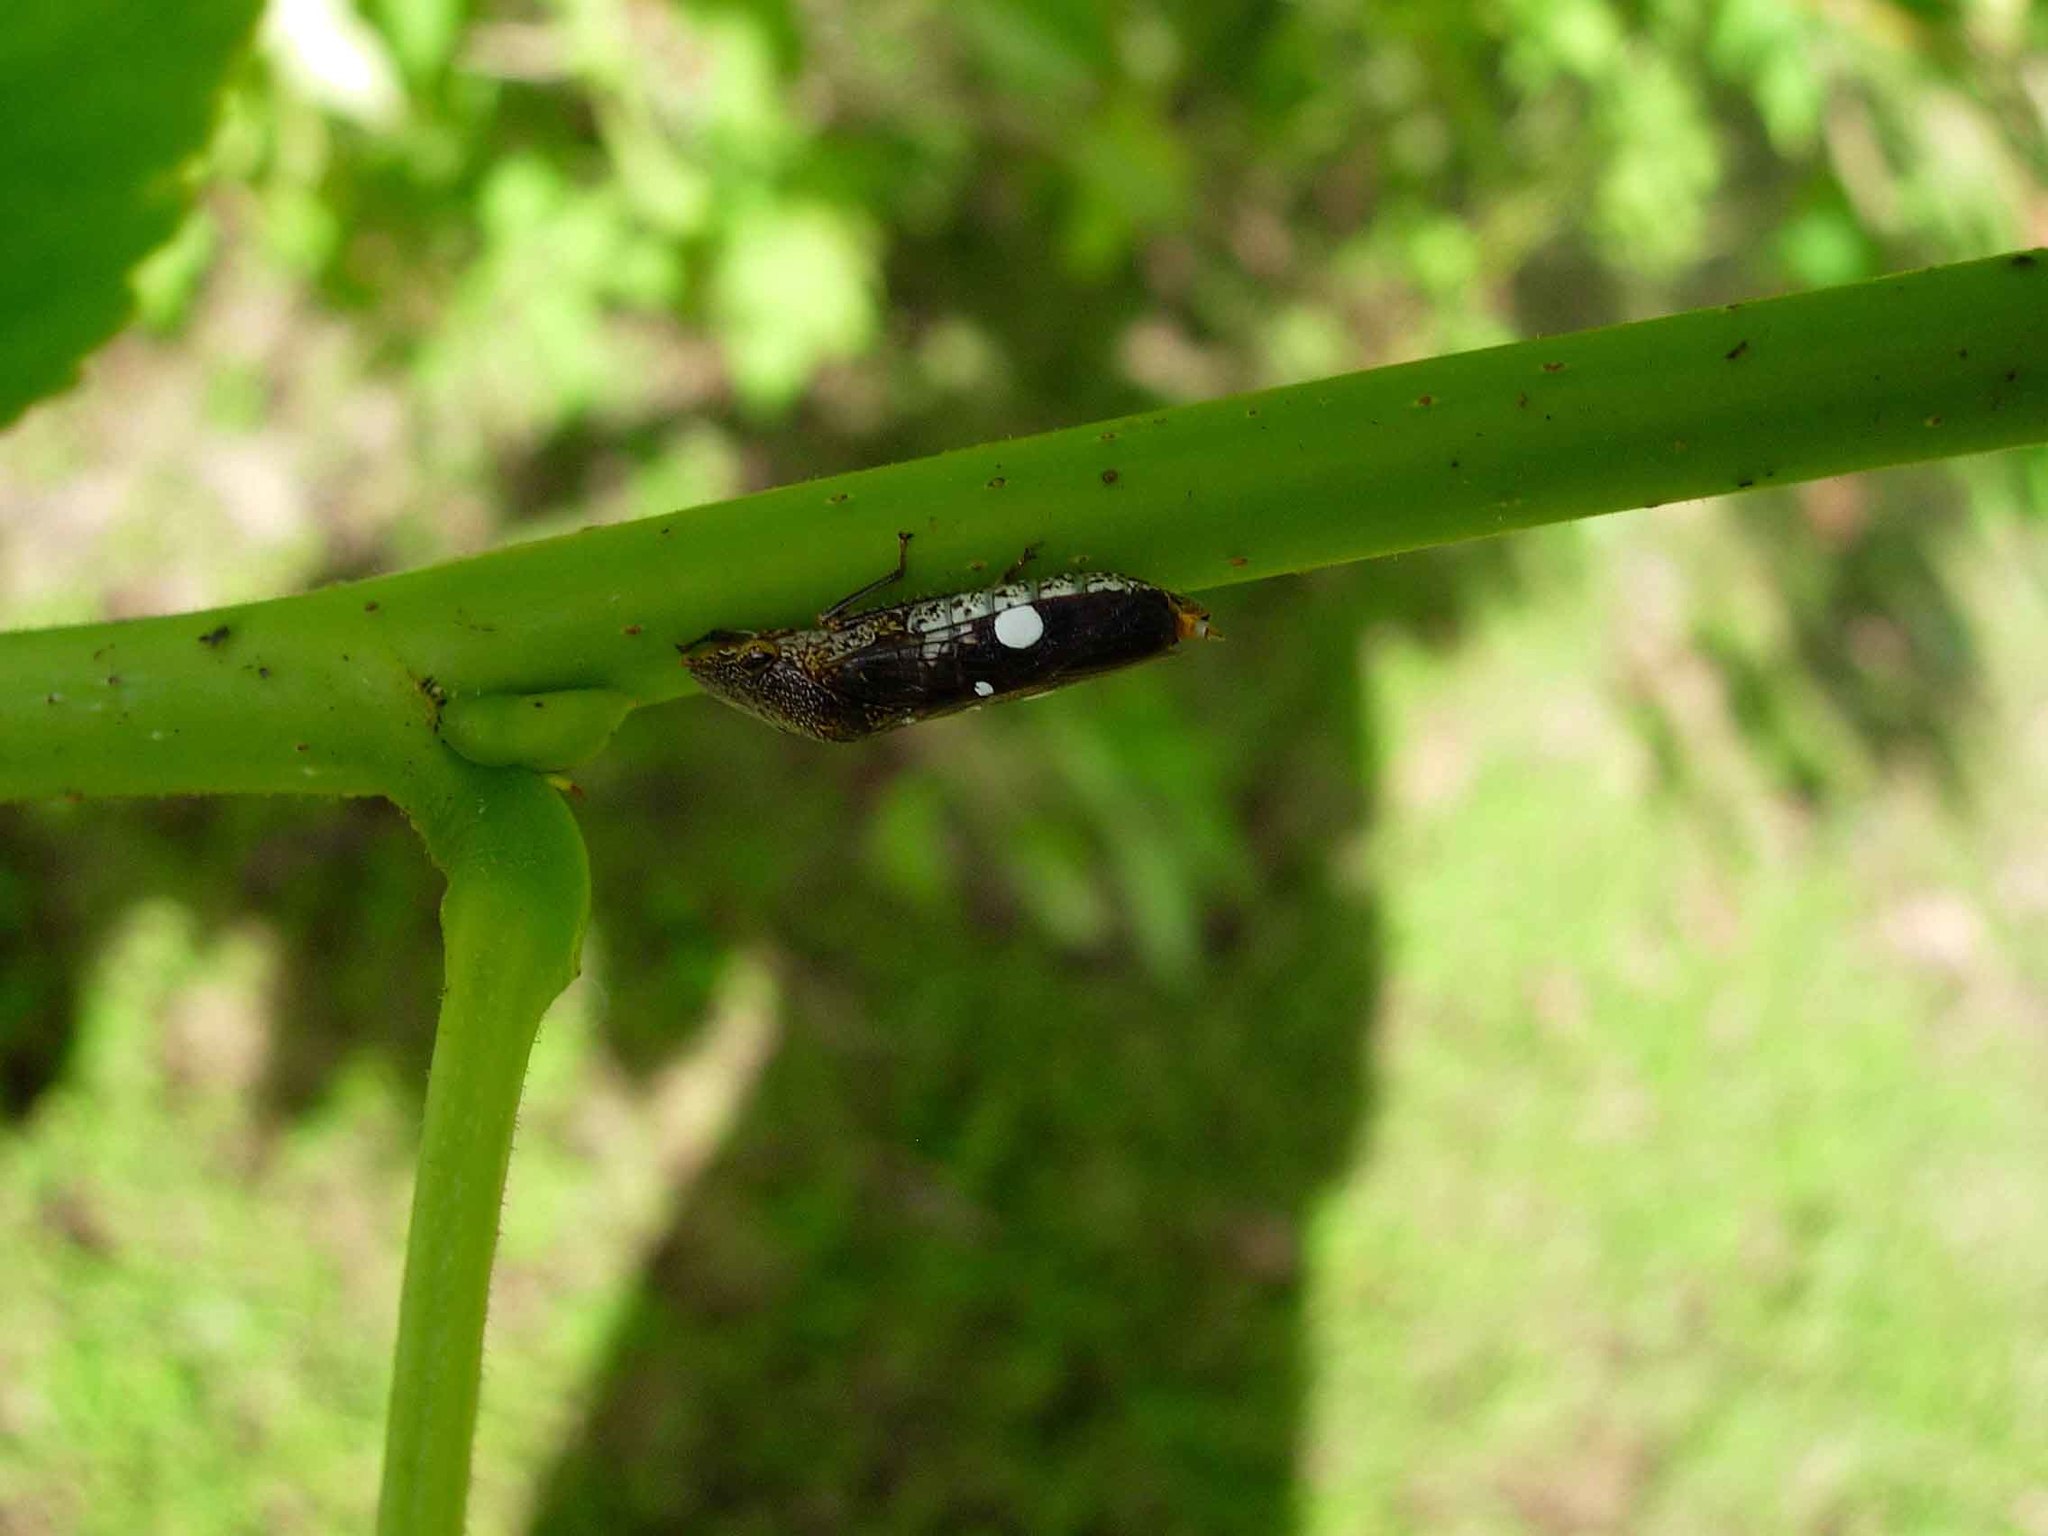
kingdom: Animalia
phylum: Arthropoda
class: Insecta
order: Hemiptera
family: Cicadellidae
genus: Homalodisca
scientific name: Homalodisca vitripennis
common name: Glassy-winged sharpshooter
